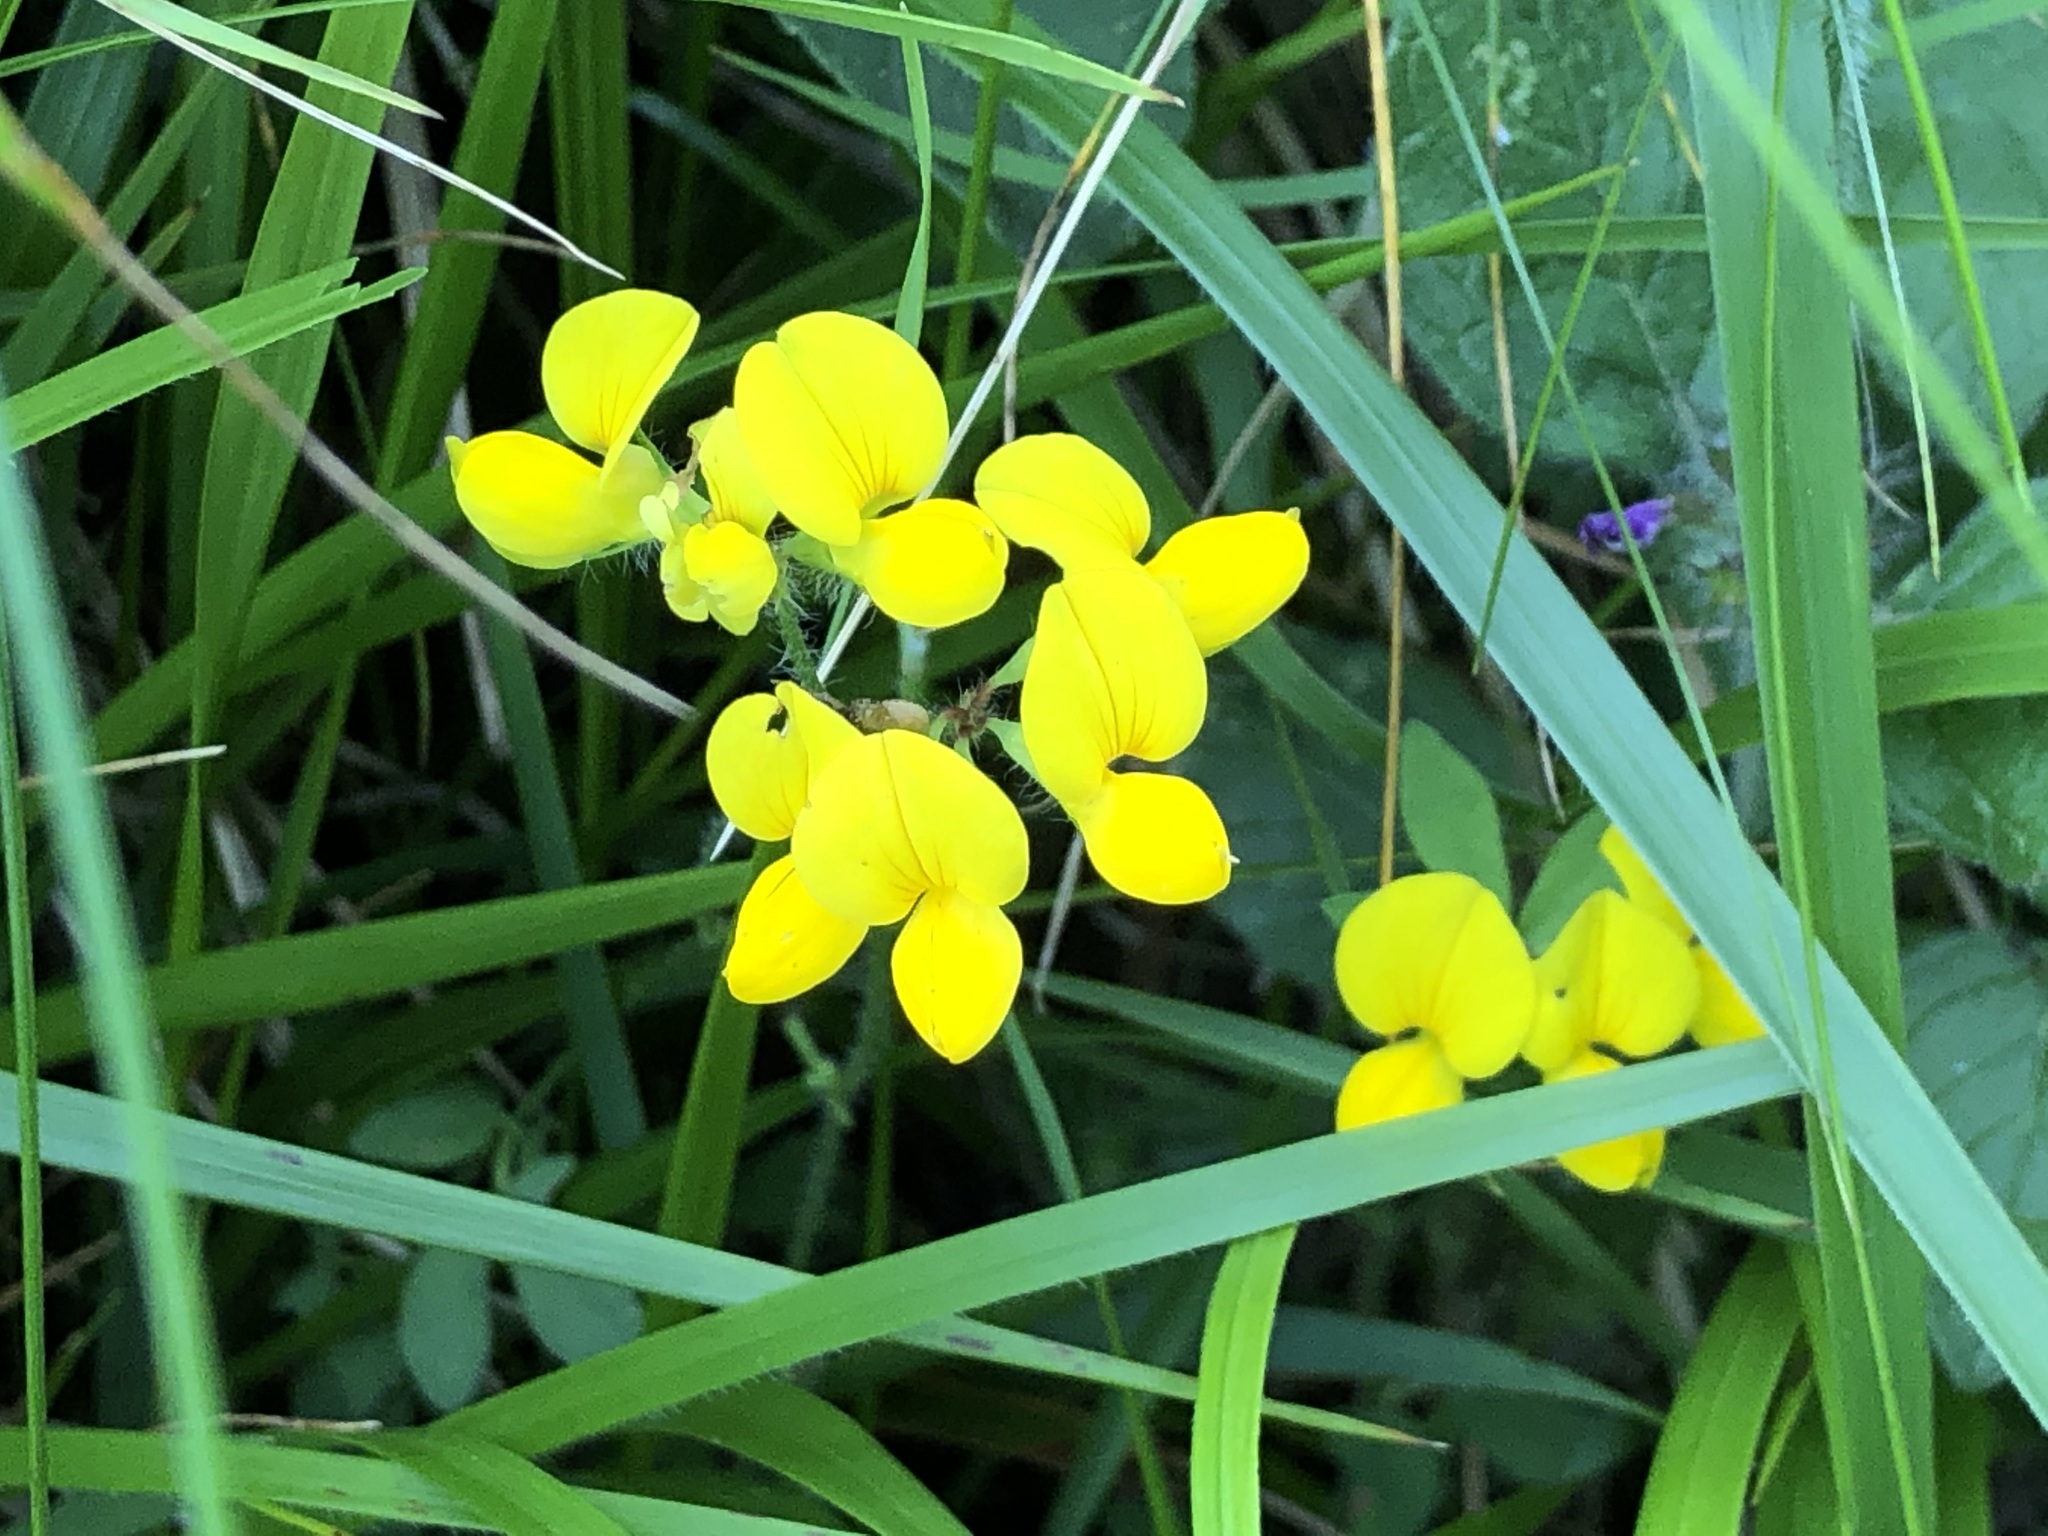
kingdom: Plantae
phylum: Tracheophyta
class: Magnoliopsida
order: Fabales
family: Fabaceae
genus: Lotus
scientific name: Lotus corniculatus
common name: Common bird's-foot-trefoil
